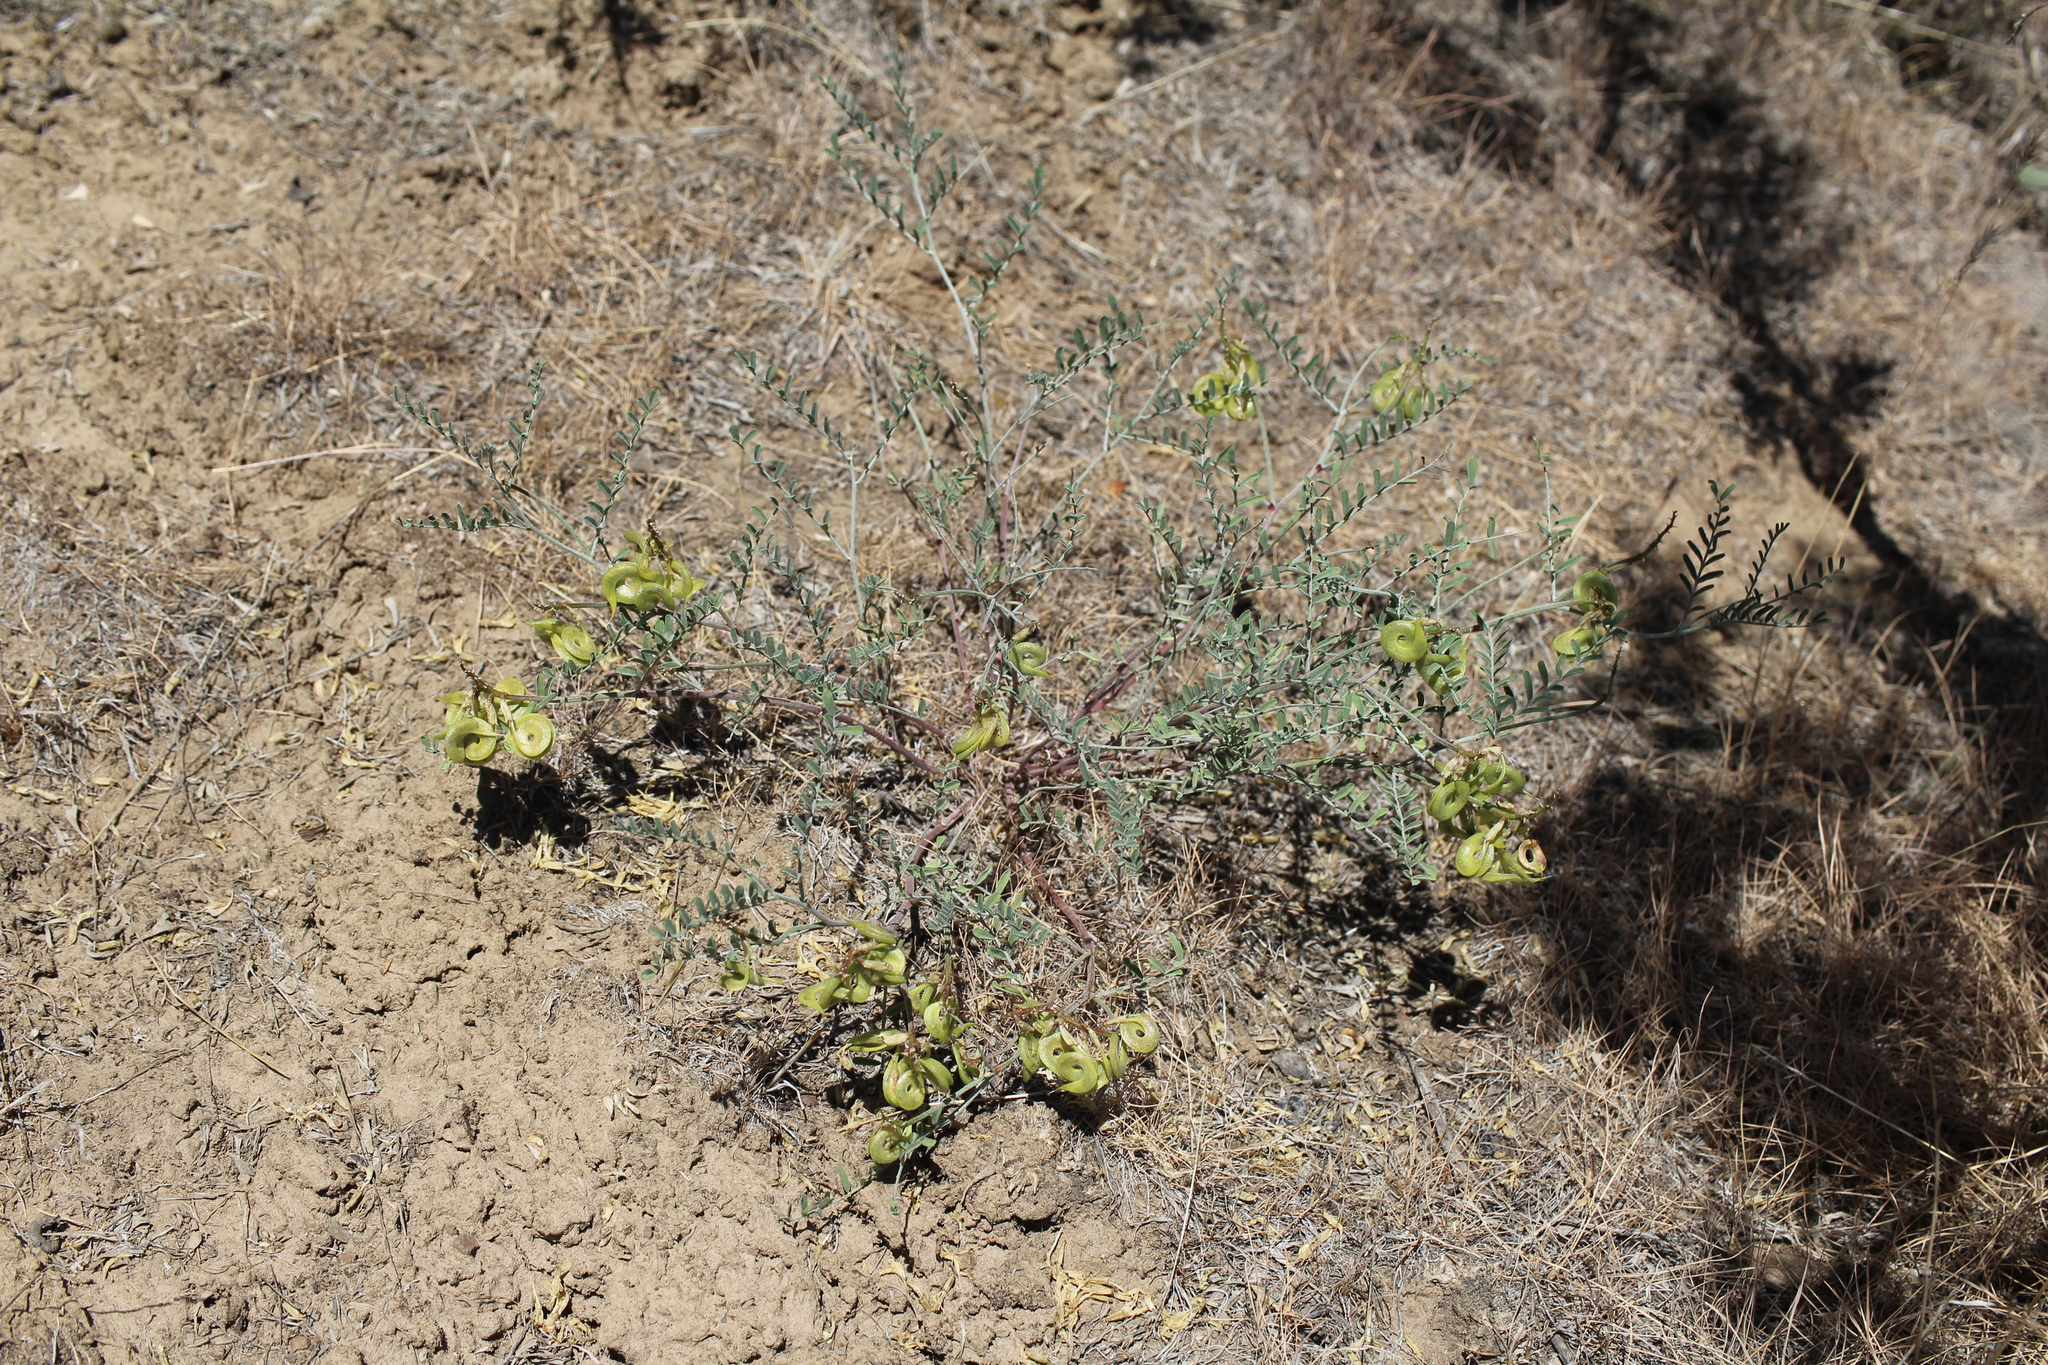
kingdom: Plantae
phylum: Tracheophyta
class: Magnoliopsida
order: Fabales
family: Fabaceae
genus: Astragalus
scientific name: Astragalus speirocarpus
